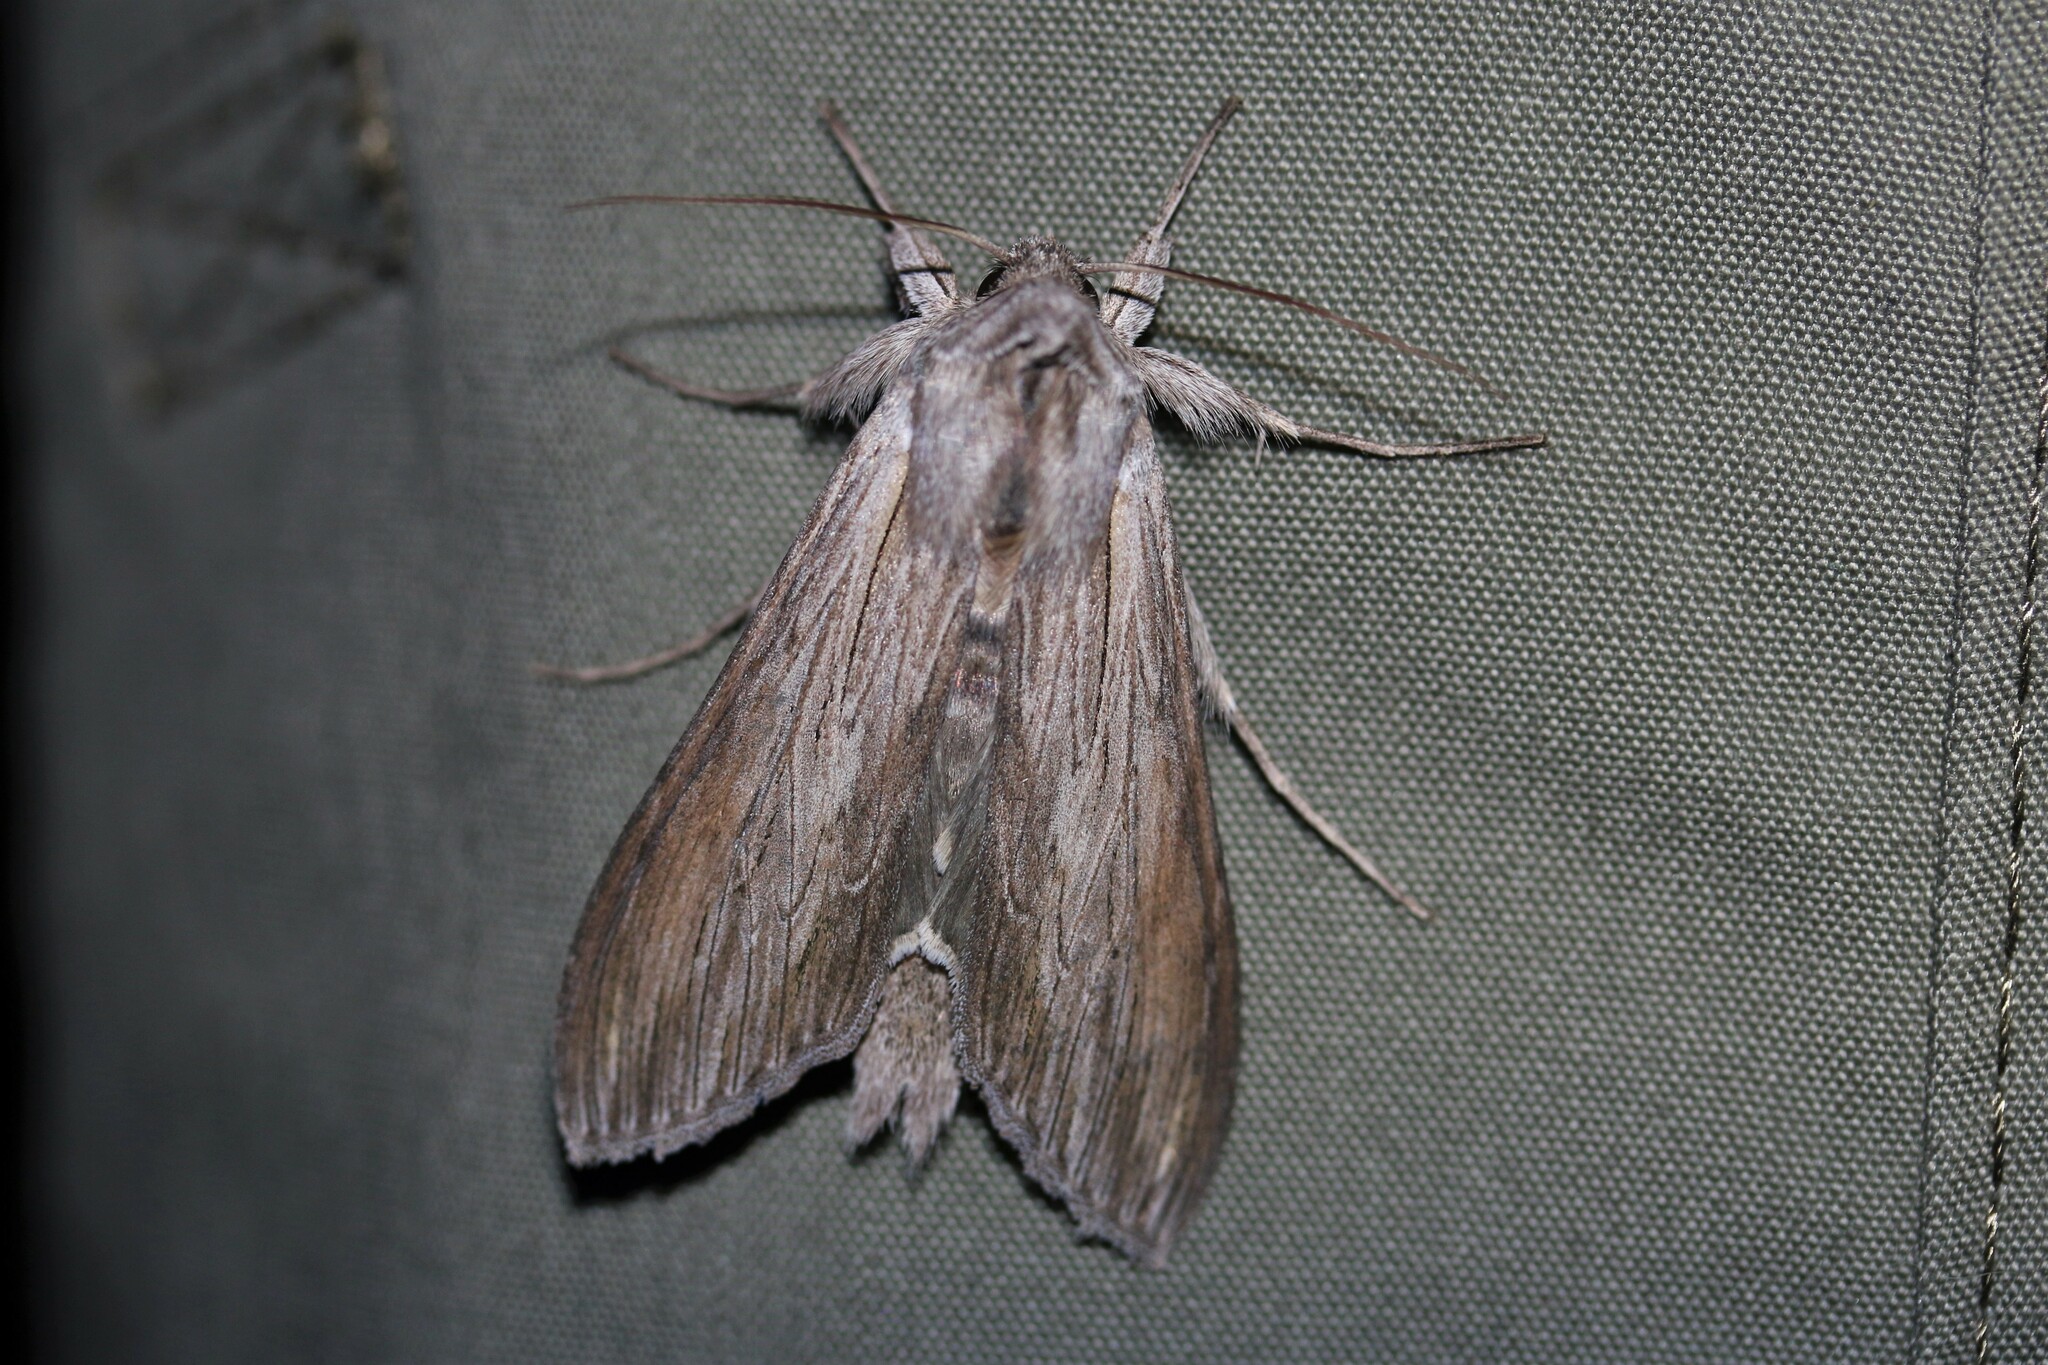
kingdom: Animalia
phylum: Arthropoda
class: Insecta
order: Lepidoptera
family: Noctuidae
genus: Cucullia
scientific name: Cucullia umbratica
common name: Shark
